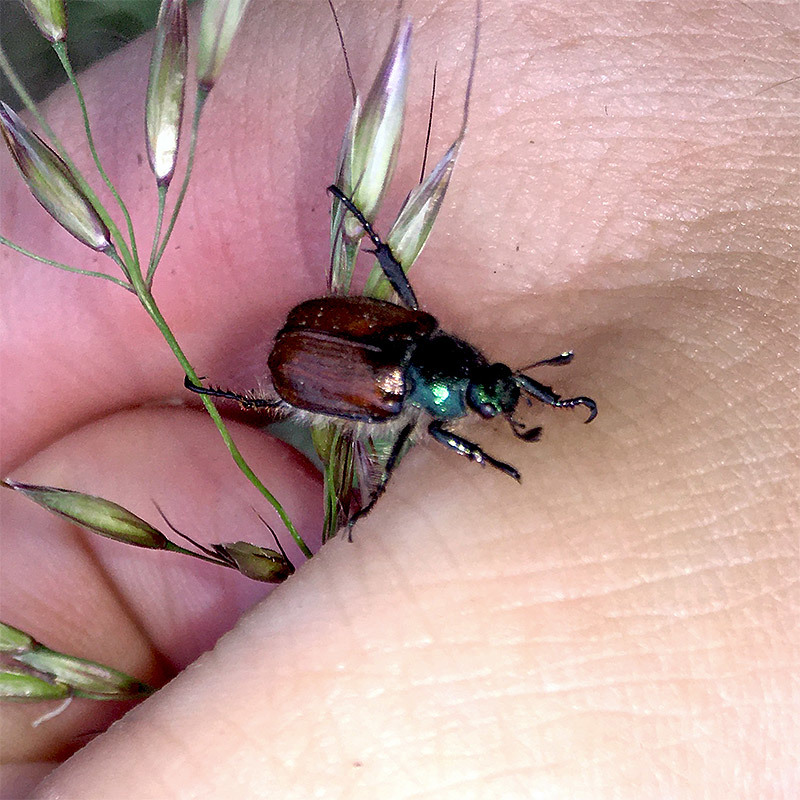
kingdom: Animalia
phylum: Arthropoda
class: Insecta
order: Coleoptera
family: Scarabaeidae
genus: Phyllopertha
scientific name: Phyllopertha horticola
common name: Garden chafer
